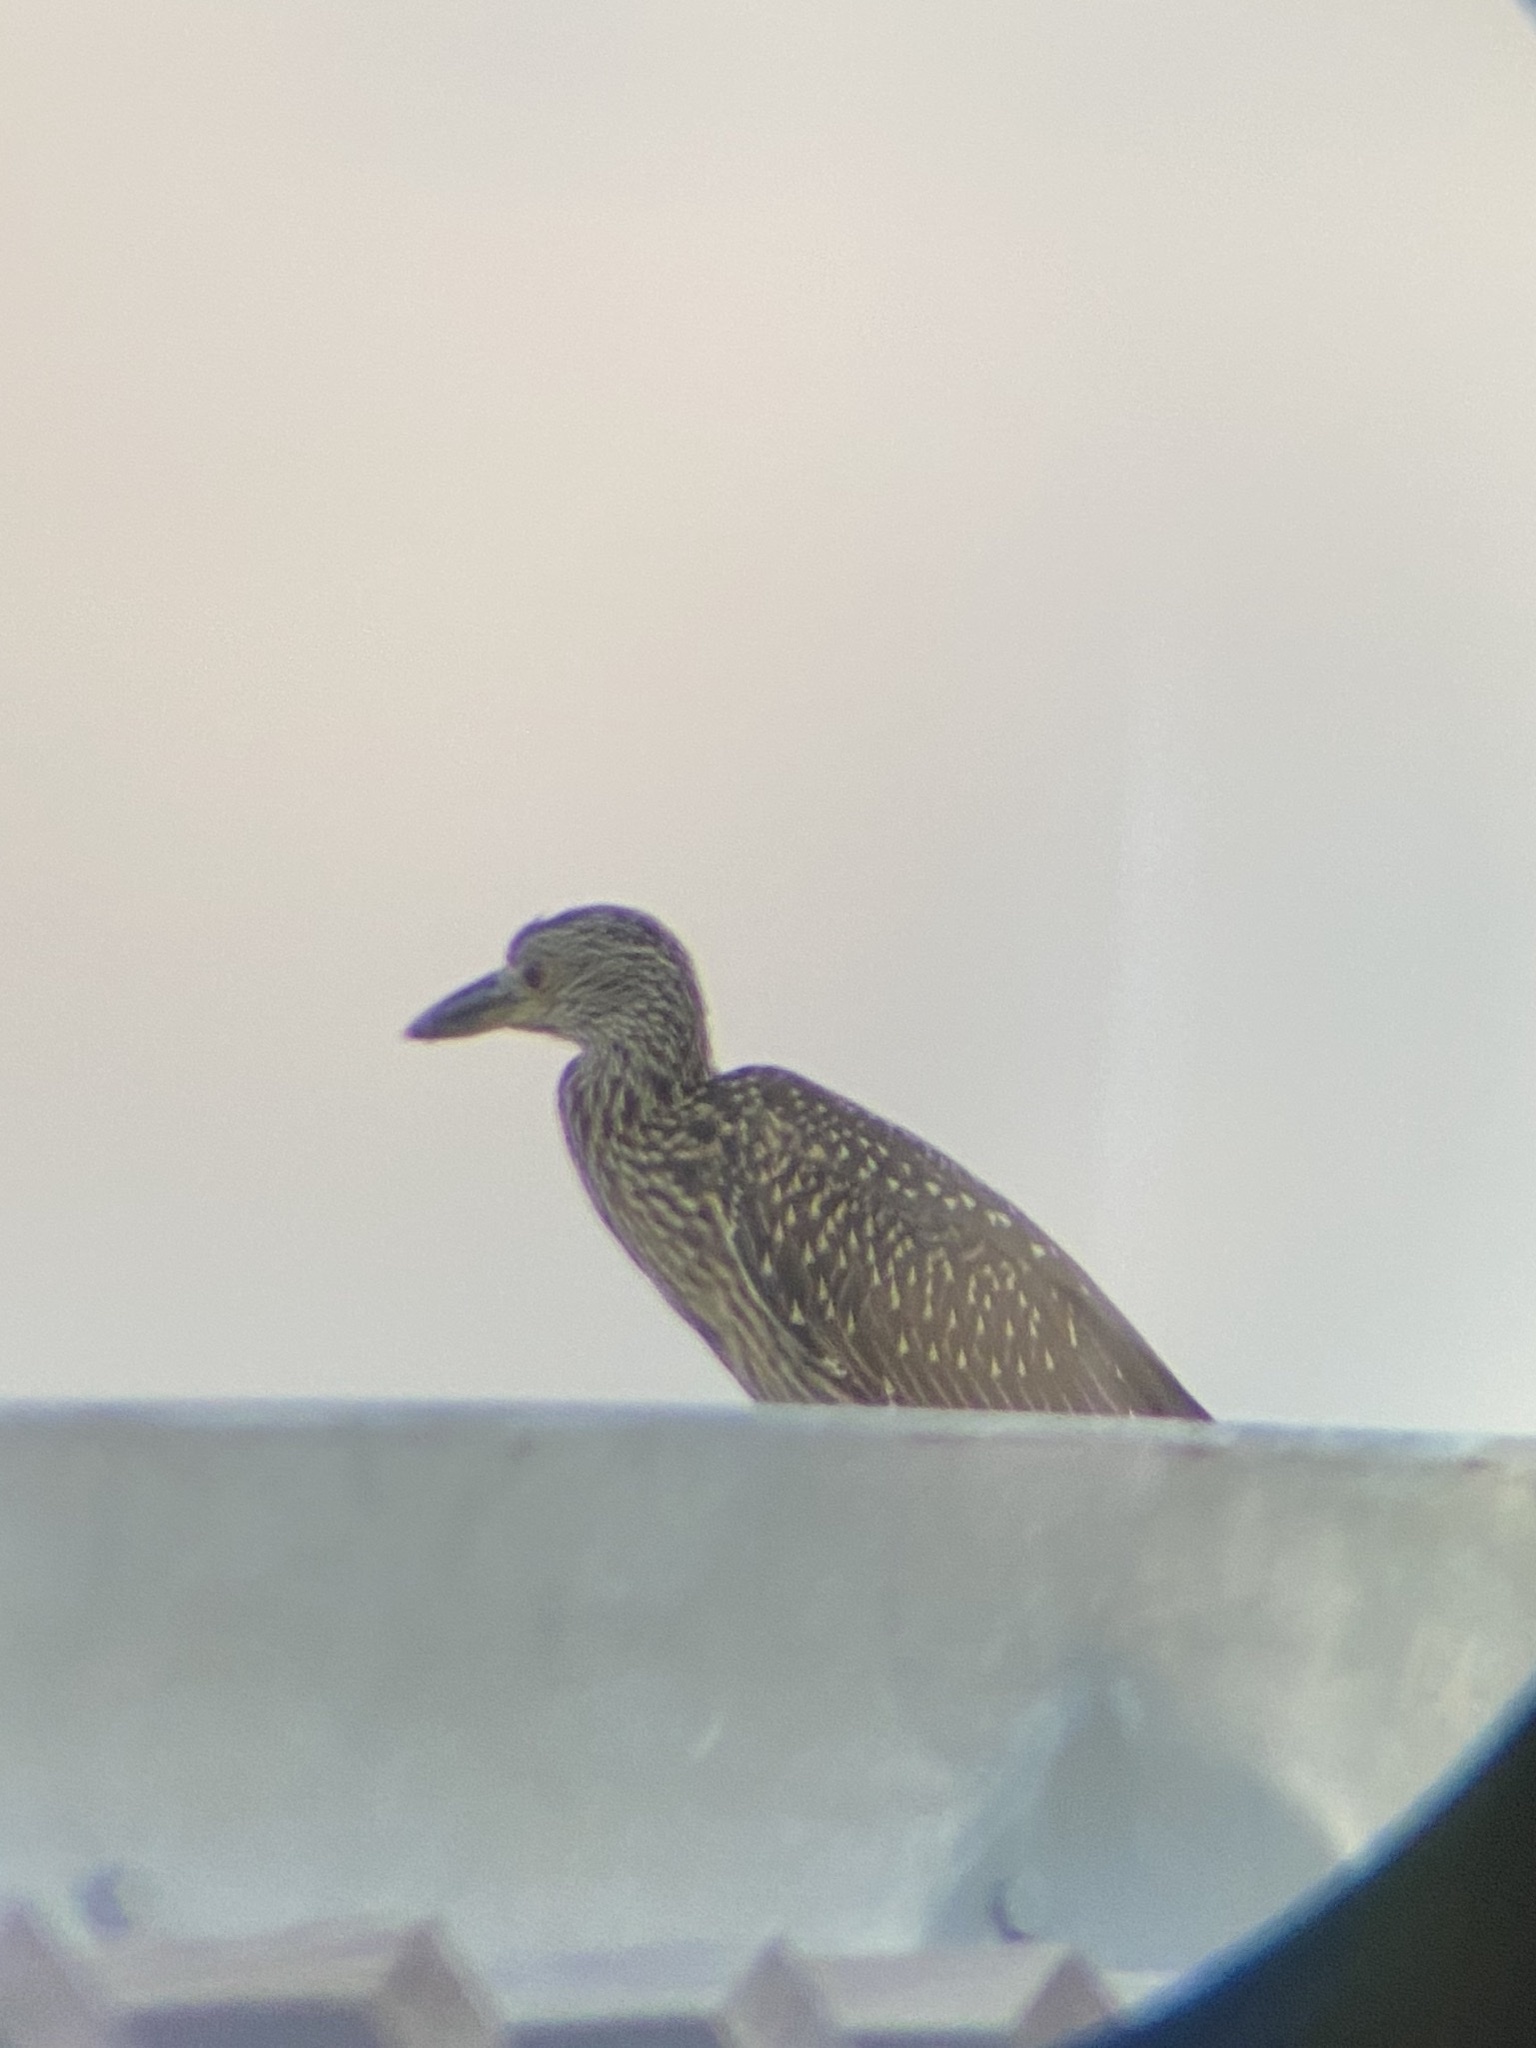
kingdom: Animalia
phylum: Chordata
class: Aves
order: Pelecaniformes
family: Ardeidae
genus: Nyctanassa
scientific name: Nyctanassa violacea
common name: Yellow-crowned night heron
